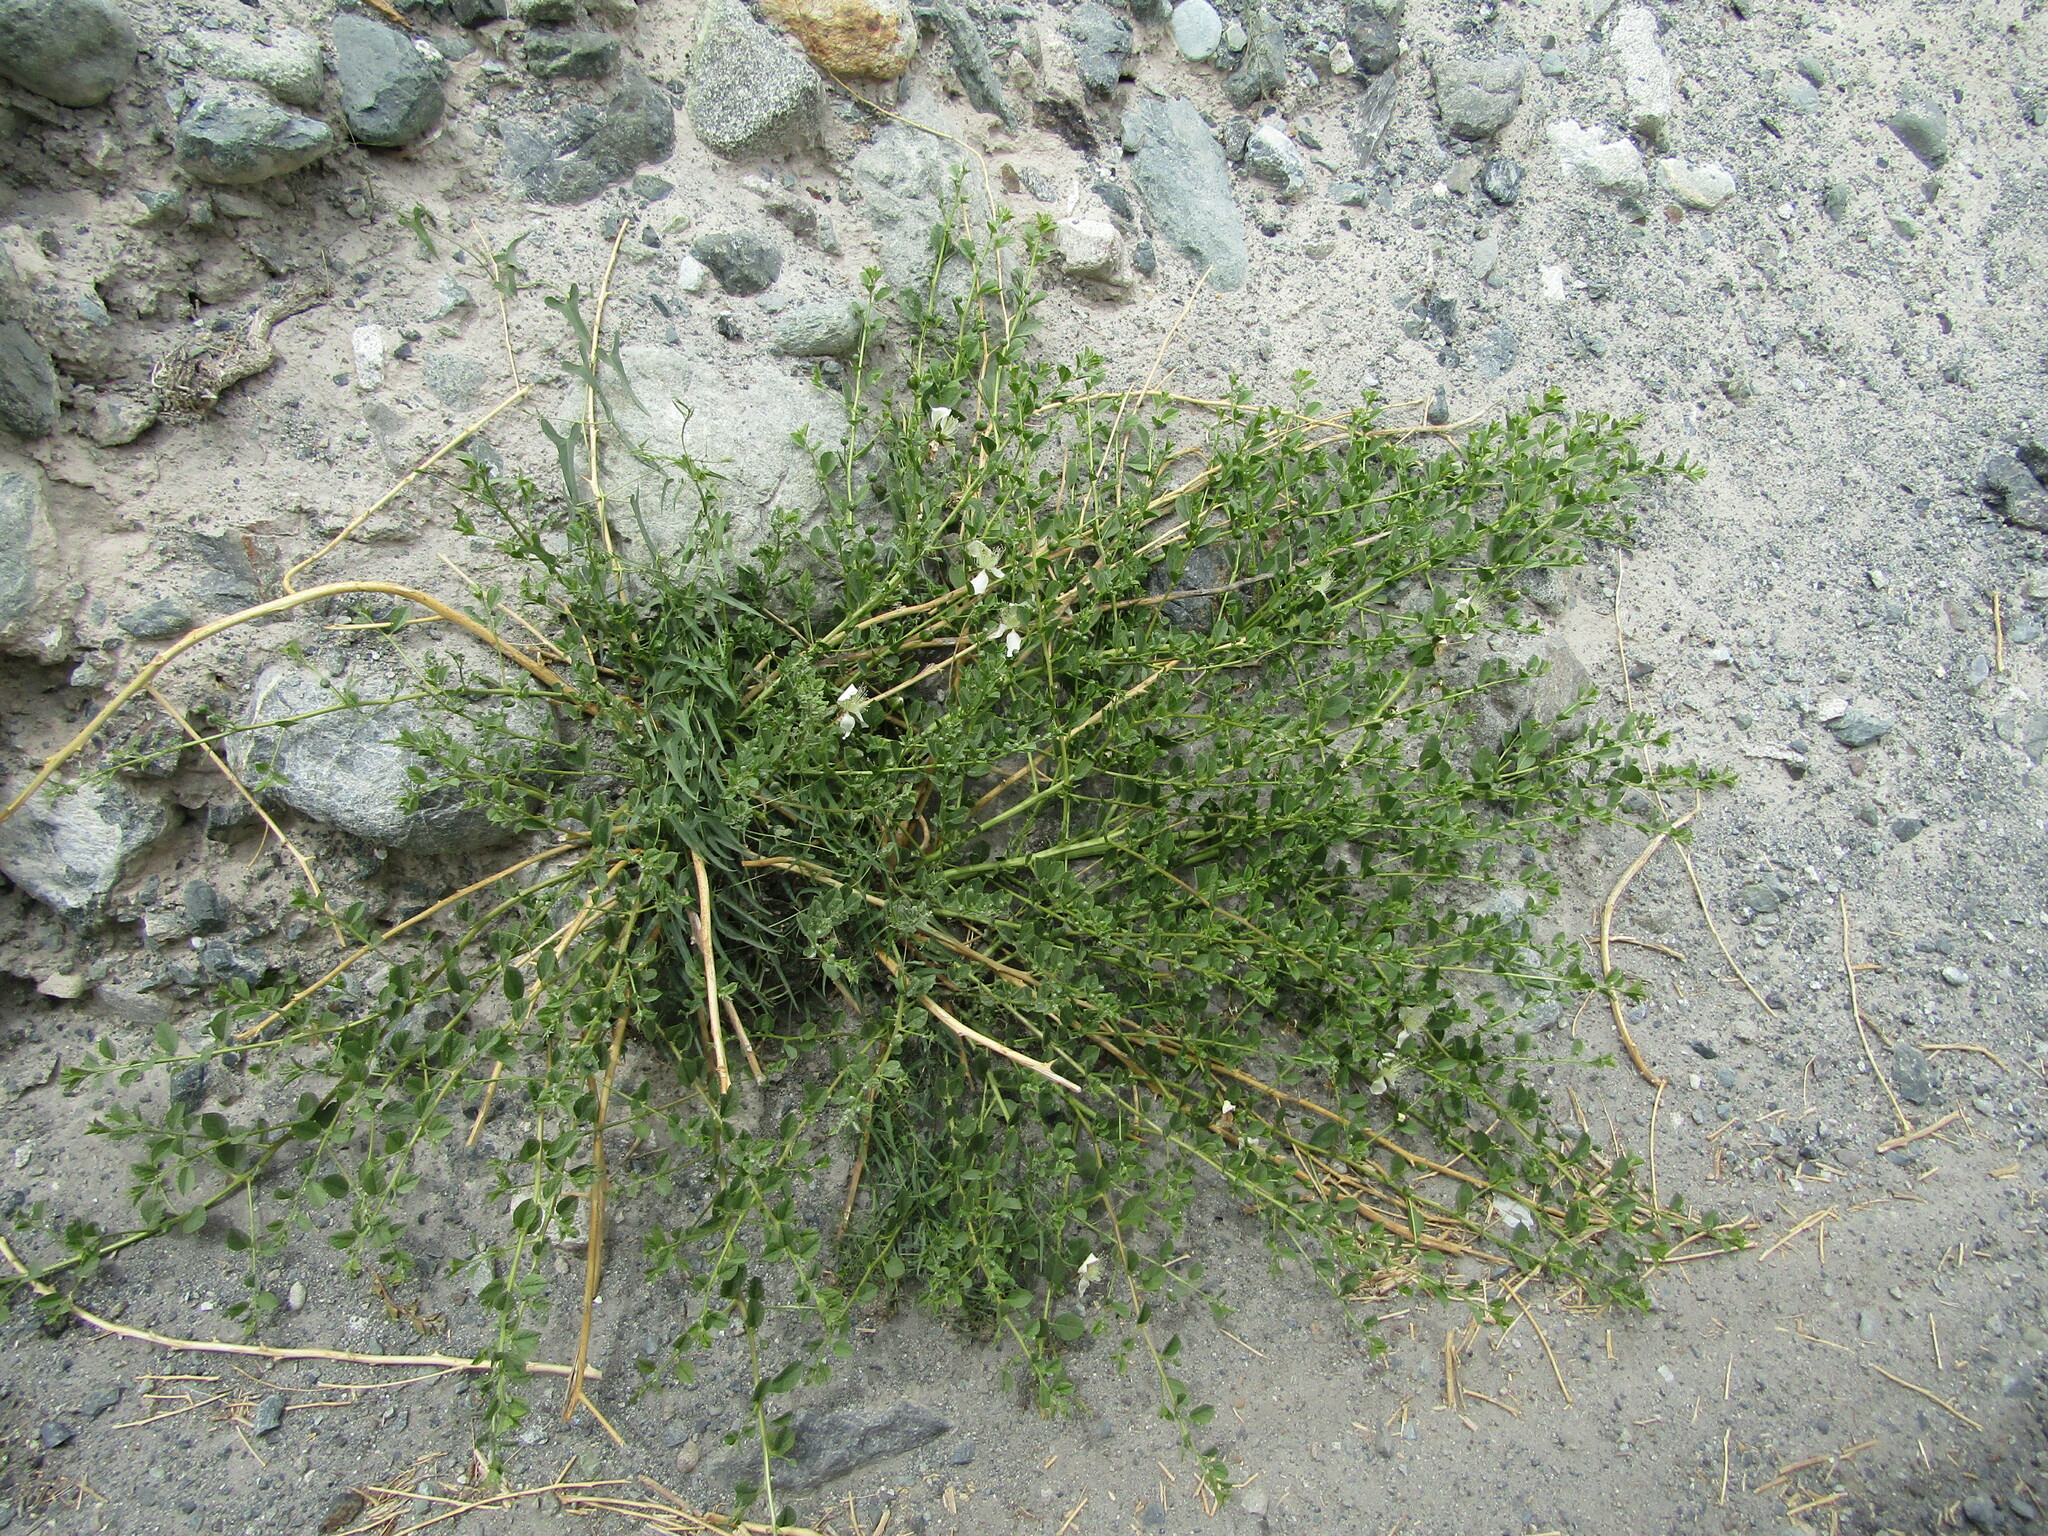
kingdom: Plantae
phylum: Tracheophyta
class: Magnoliopsida
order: Brassicales
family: Capparaceae
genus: Capparis
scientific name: Capparis spinosa
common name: Caper
